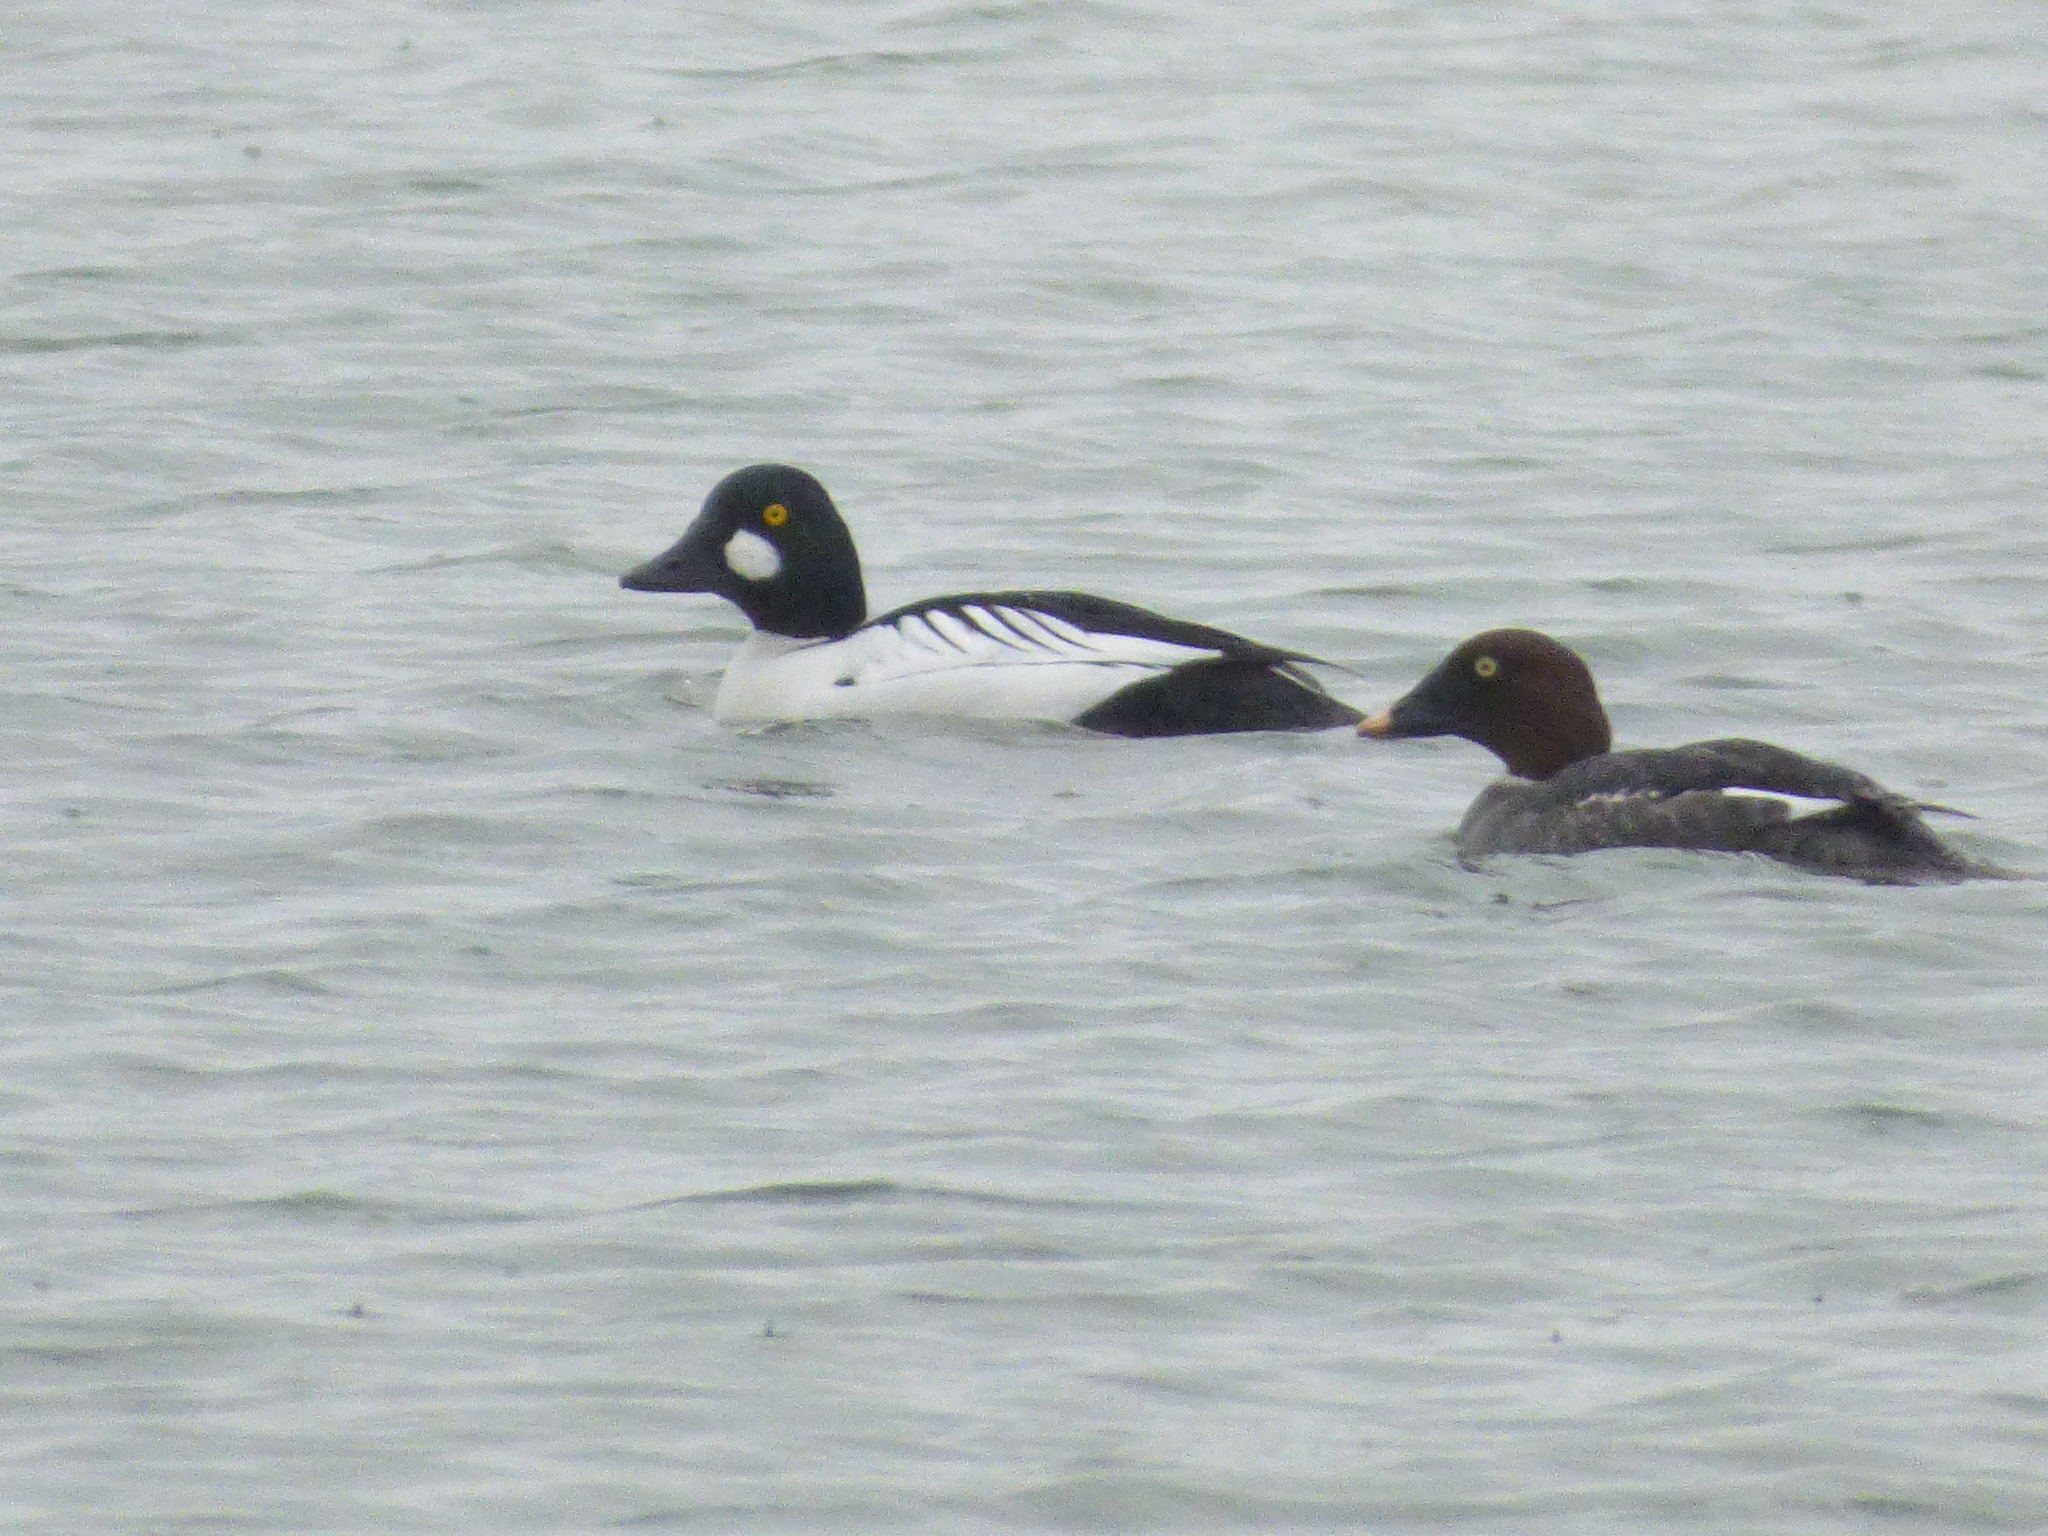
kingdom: Animalia
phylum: Chordata
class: Aves
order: Anseriformes
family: Anatidae
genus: Bucephala
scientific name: Bucephala clangula
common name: Common goldeneye
